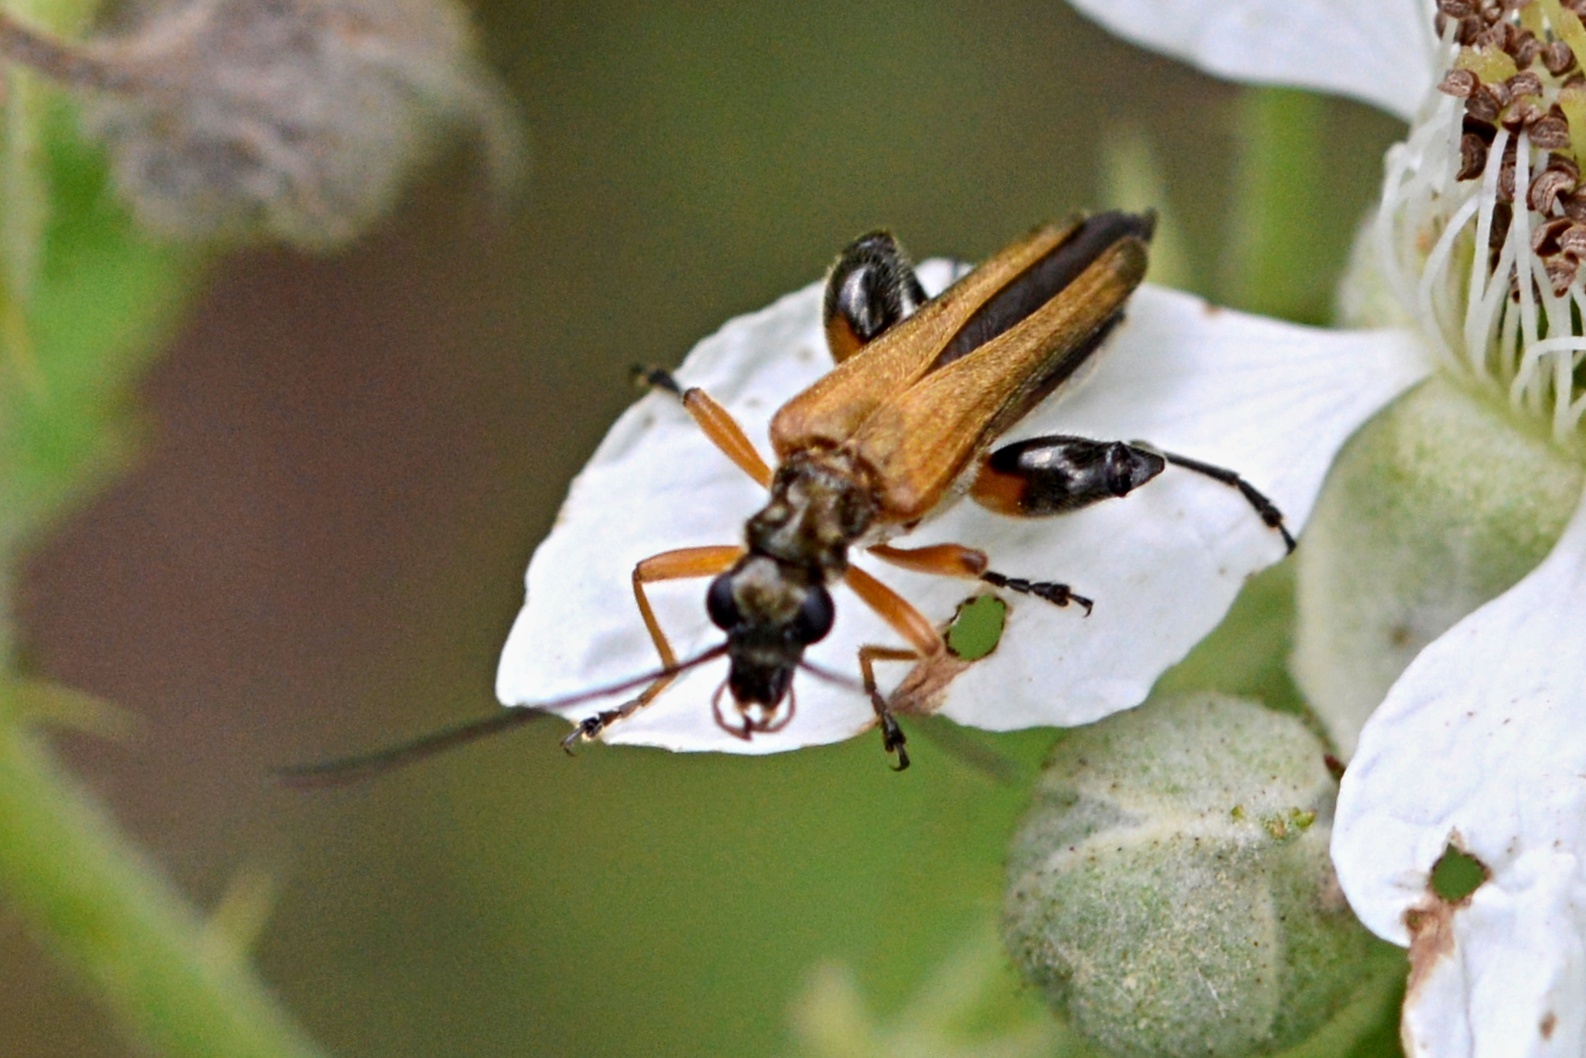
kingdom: Animalia
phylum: Arthropoda
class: Insecta
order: Coleoptera
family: Oedemeridae
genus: Oedemera
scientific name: Oedemera podagrariae
